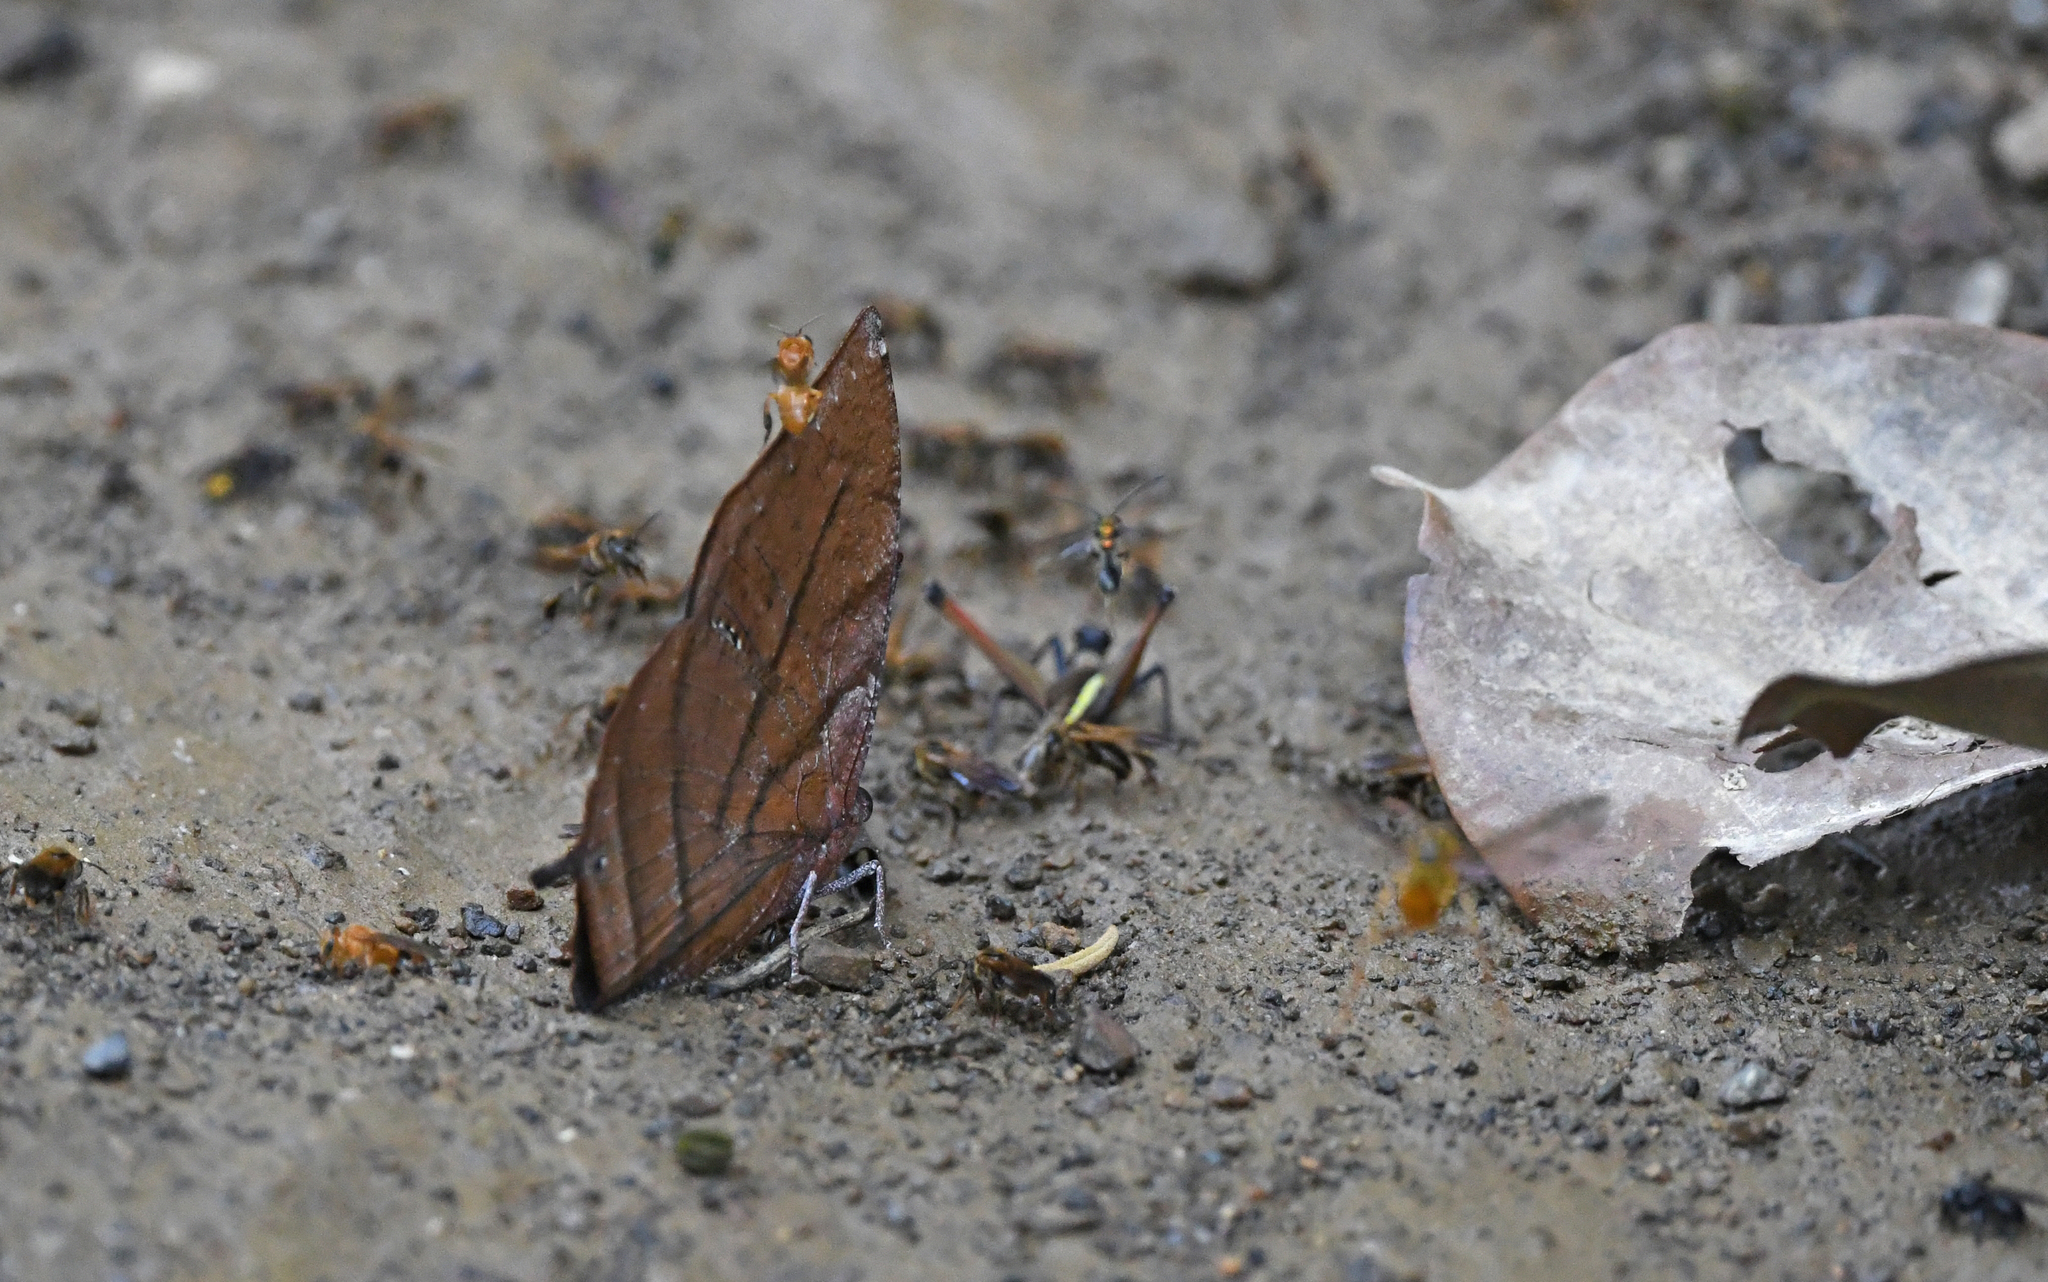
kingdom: Animalia
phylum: Arthropoda
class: Insecta
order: Lepidoptera
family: Nymphalidae
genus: Anaea
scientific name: Anaea philumena
